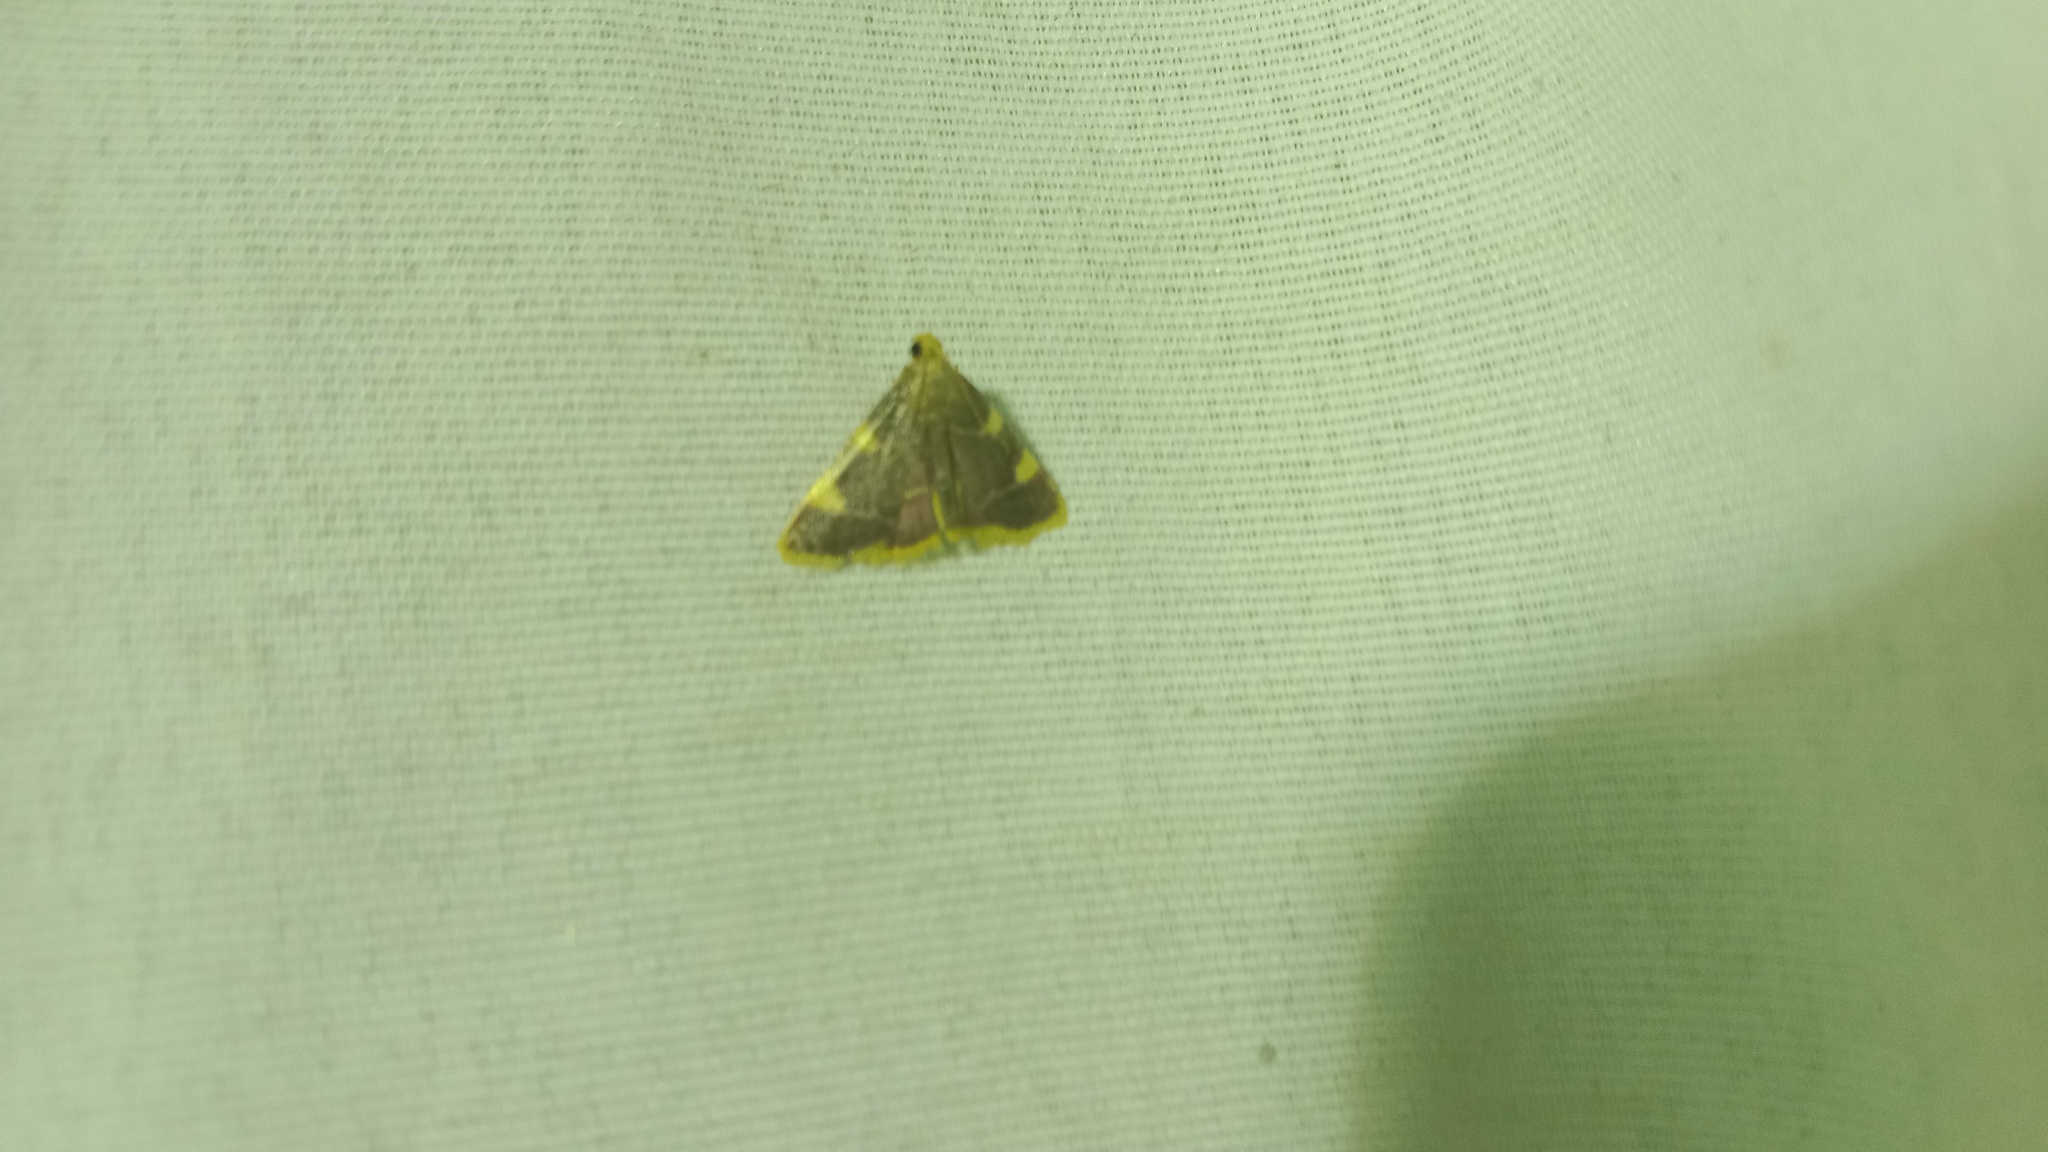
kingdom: Animalia
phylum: Arthropoda
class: Insecta
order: Lepidoptera
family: Pyralidae
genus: Hypsopygia
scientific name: Hypsopygia costalis
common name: Gold triangle
